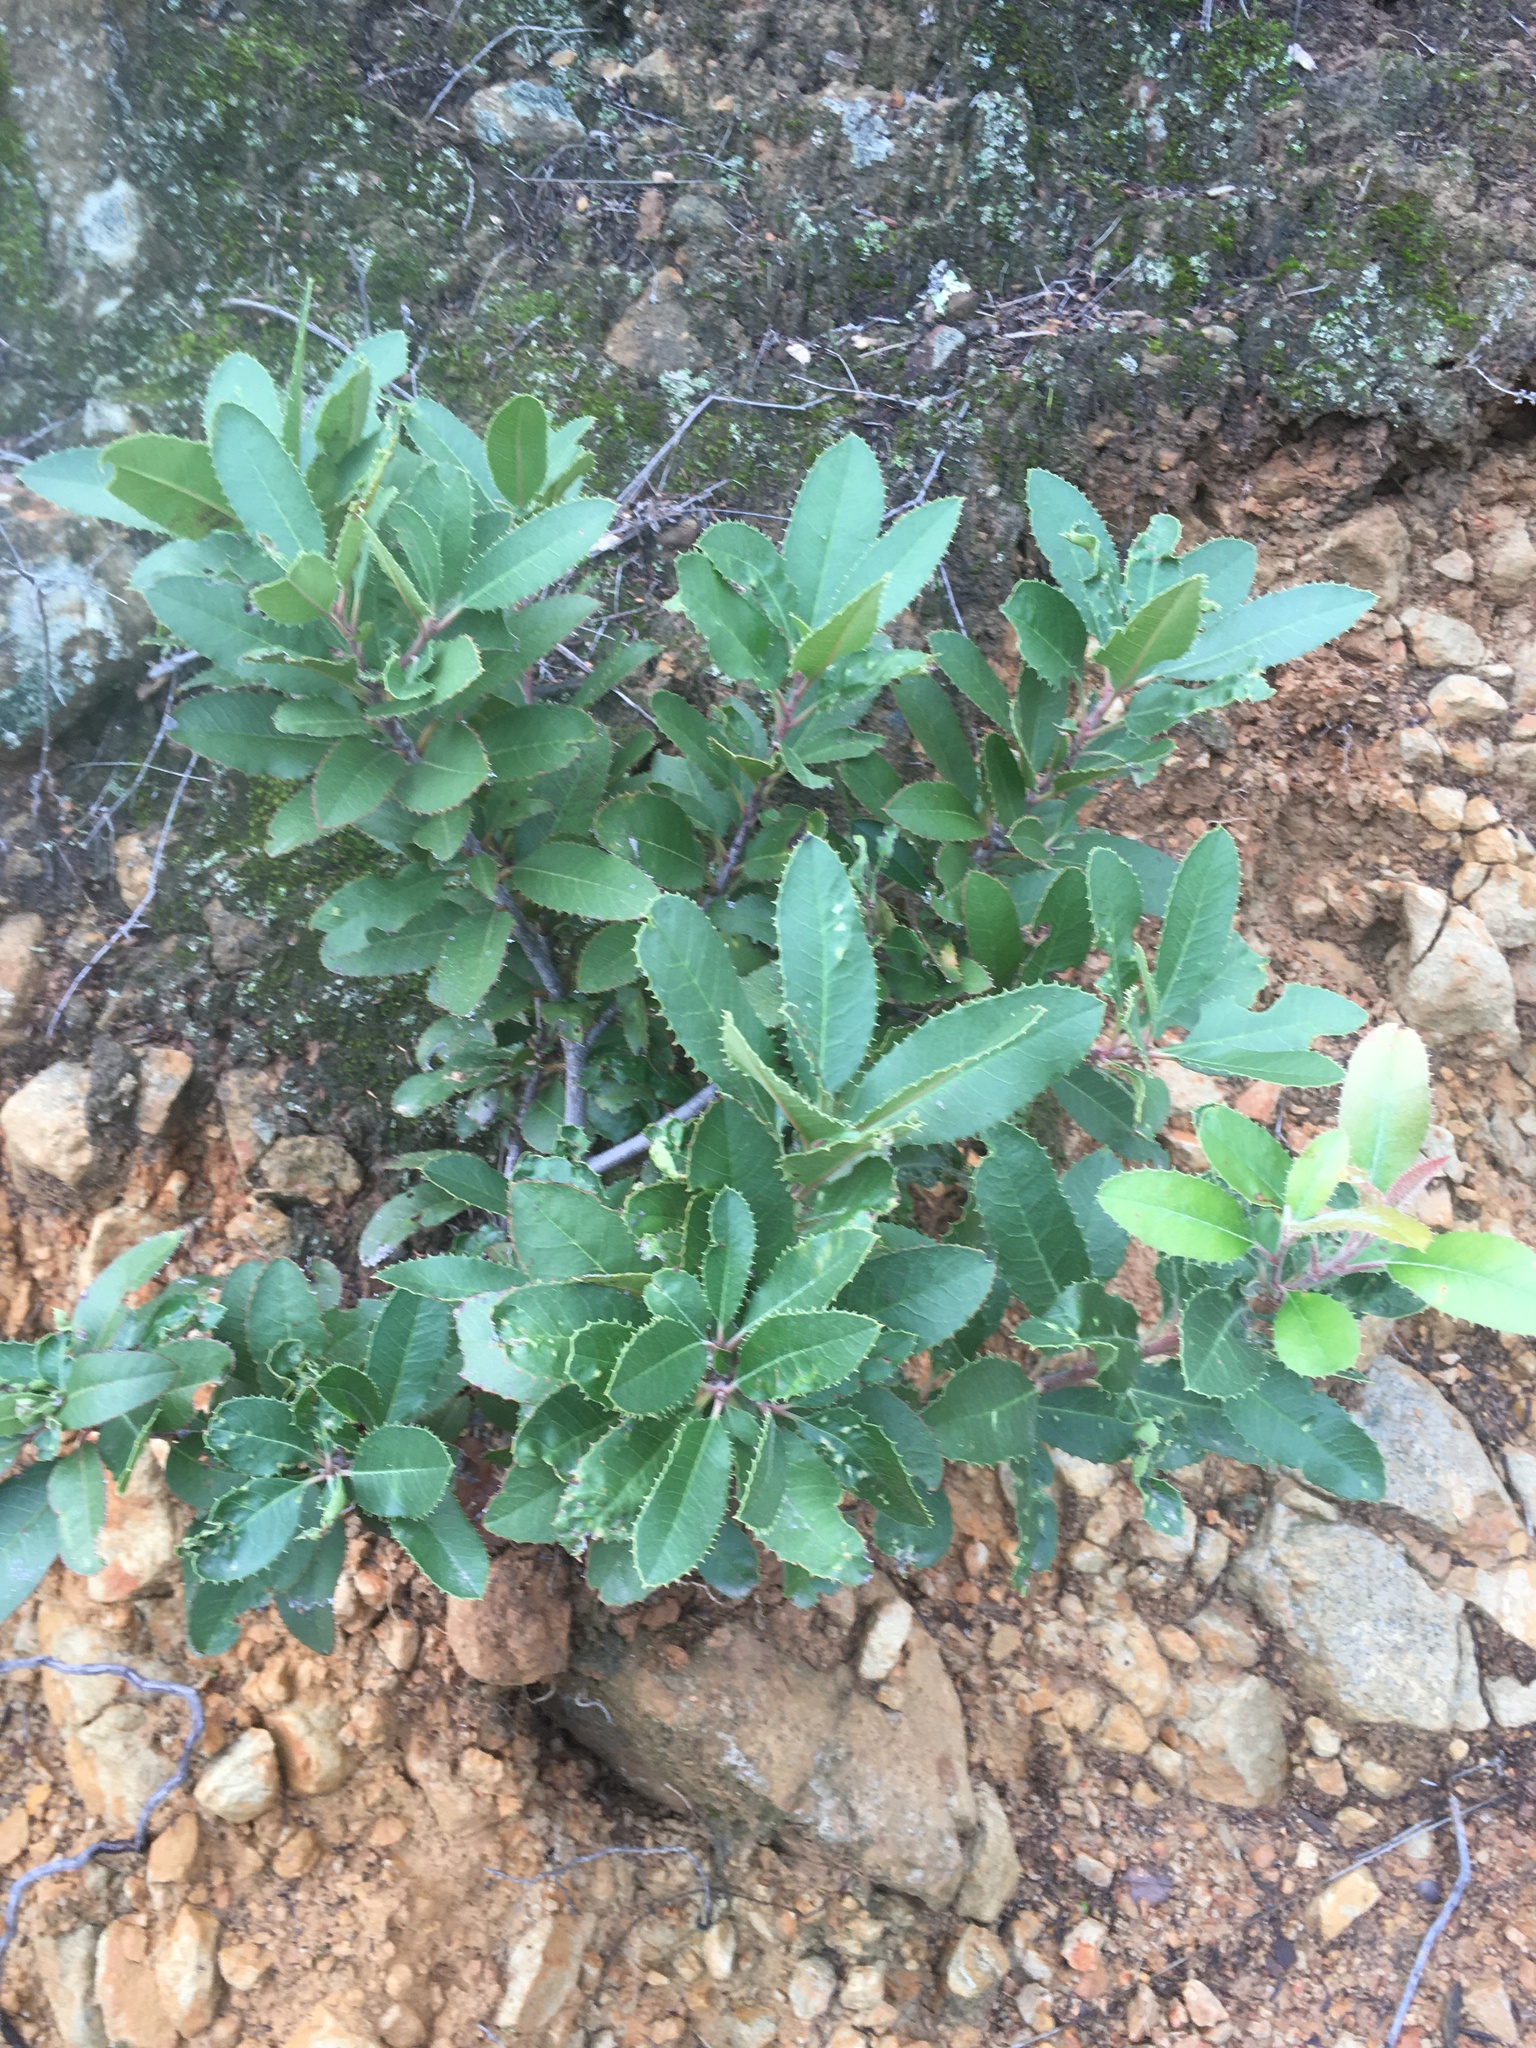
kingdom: Plantae
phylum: Tracheophyta
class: Magnoliopsida
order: Rosales
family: Rosaceae
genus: Heteromeles
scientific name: Heteromeles arbutifolia
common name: California-holly
